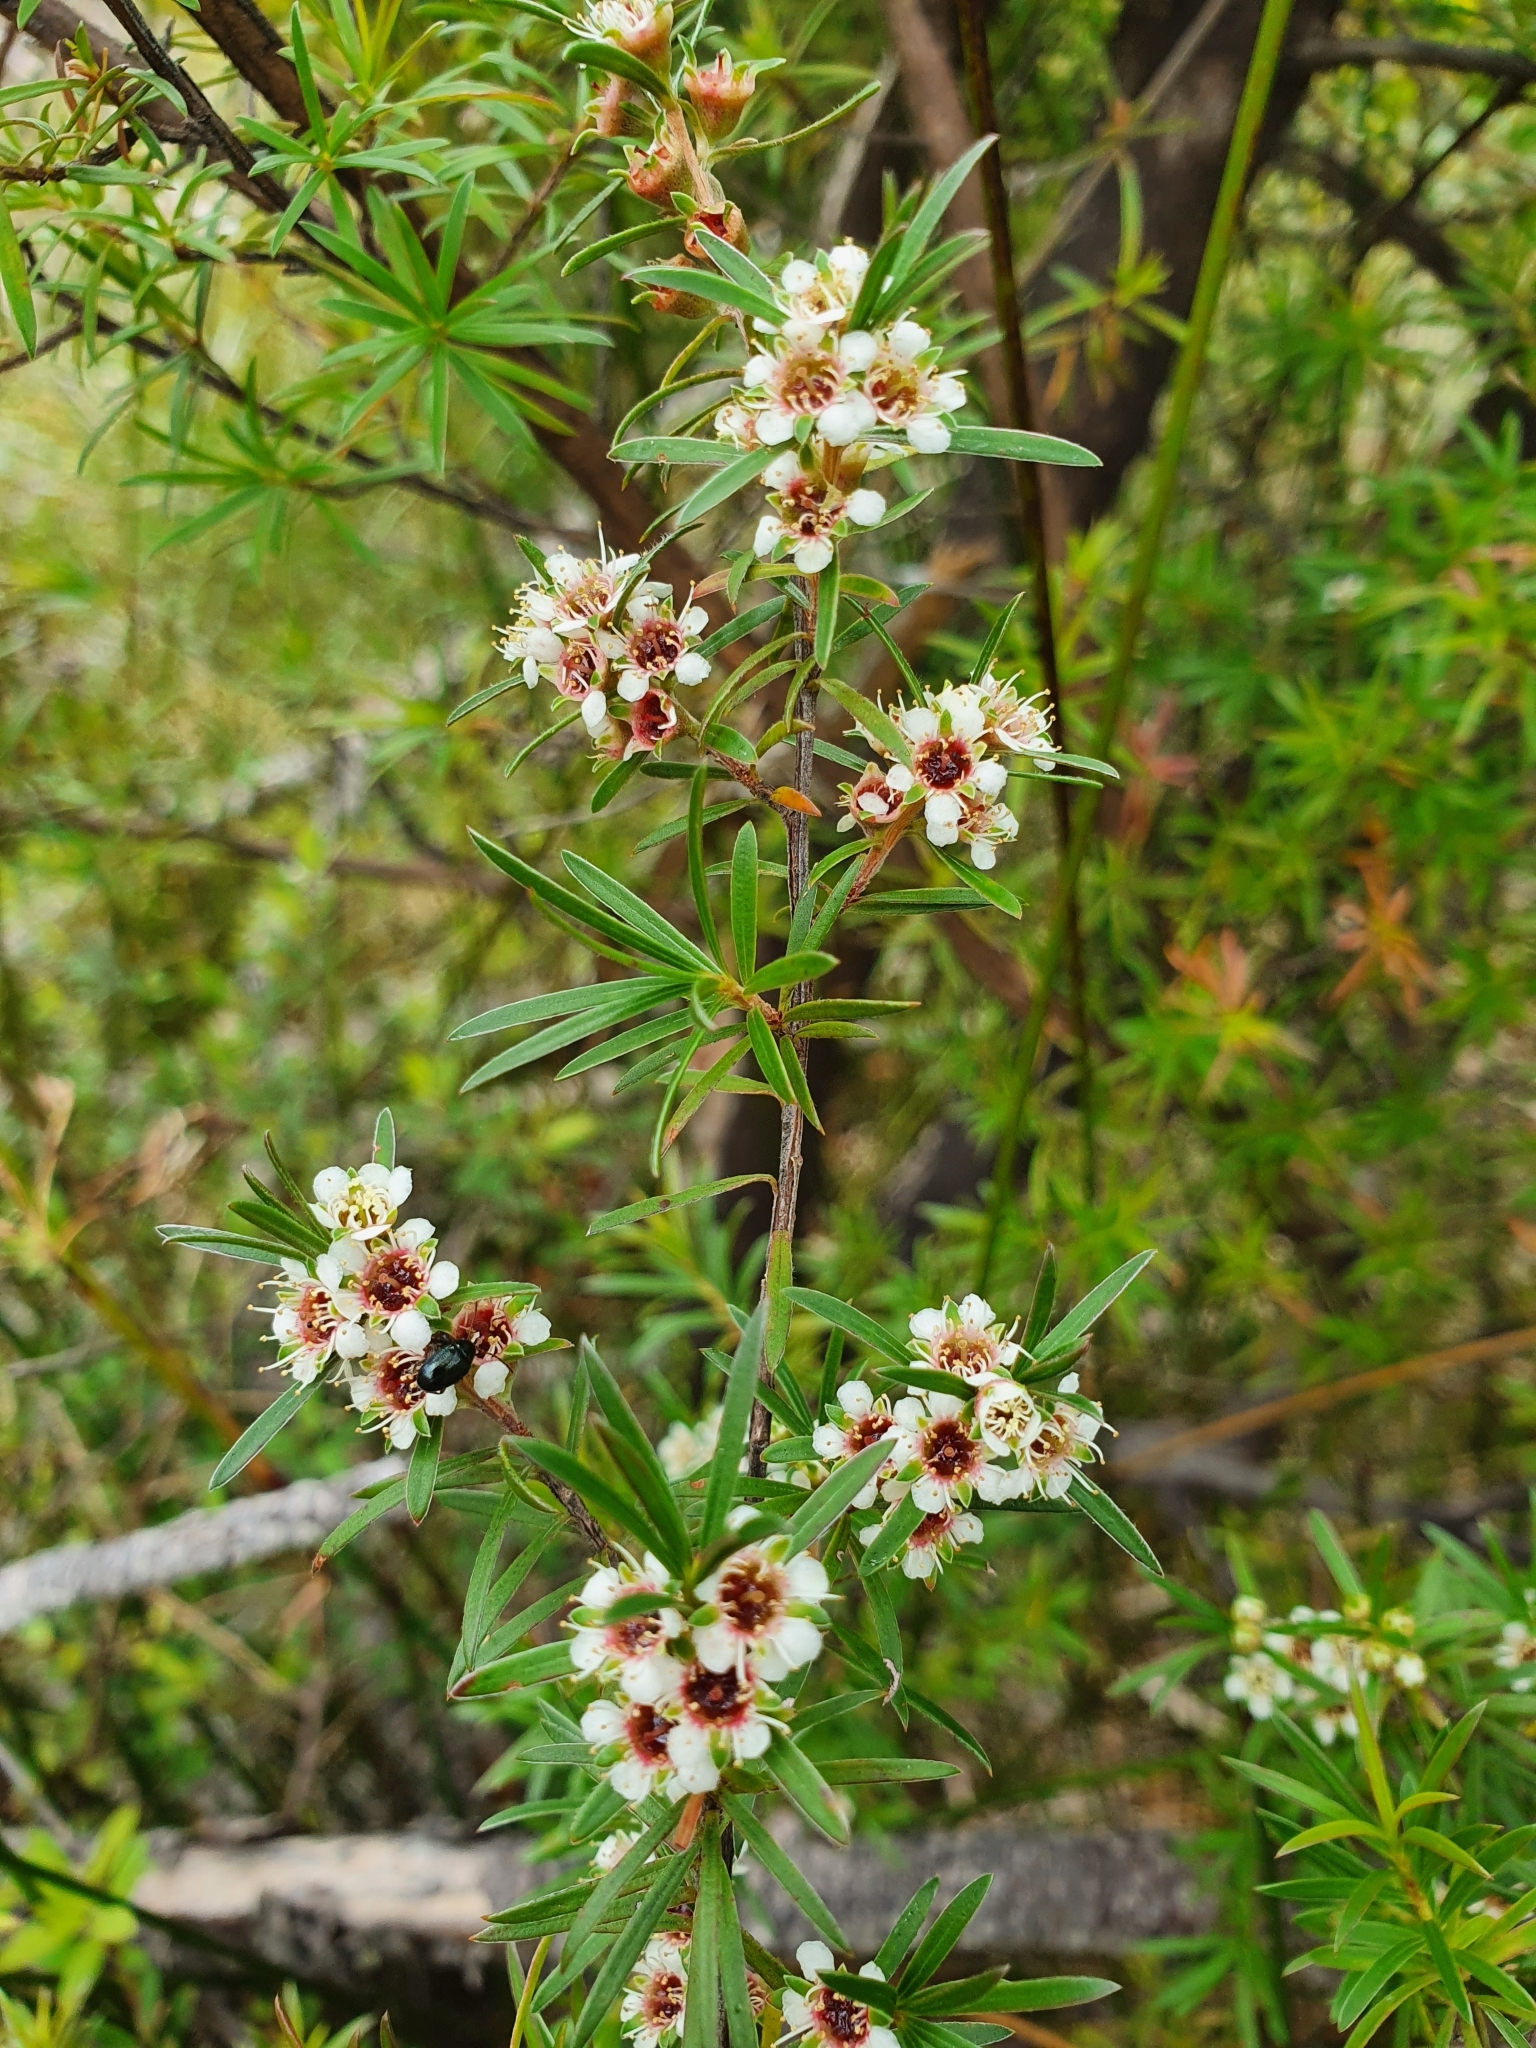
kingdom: Plantae
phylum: Tracheophyta
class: Magnoliopsida
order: Myrtales
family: Myrtaceae
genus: Kunzea
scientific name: Kunzea robusta
